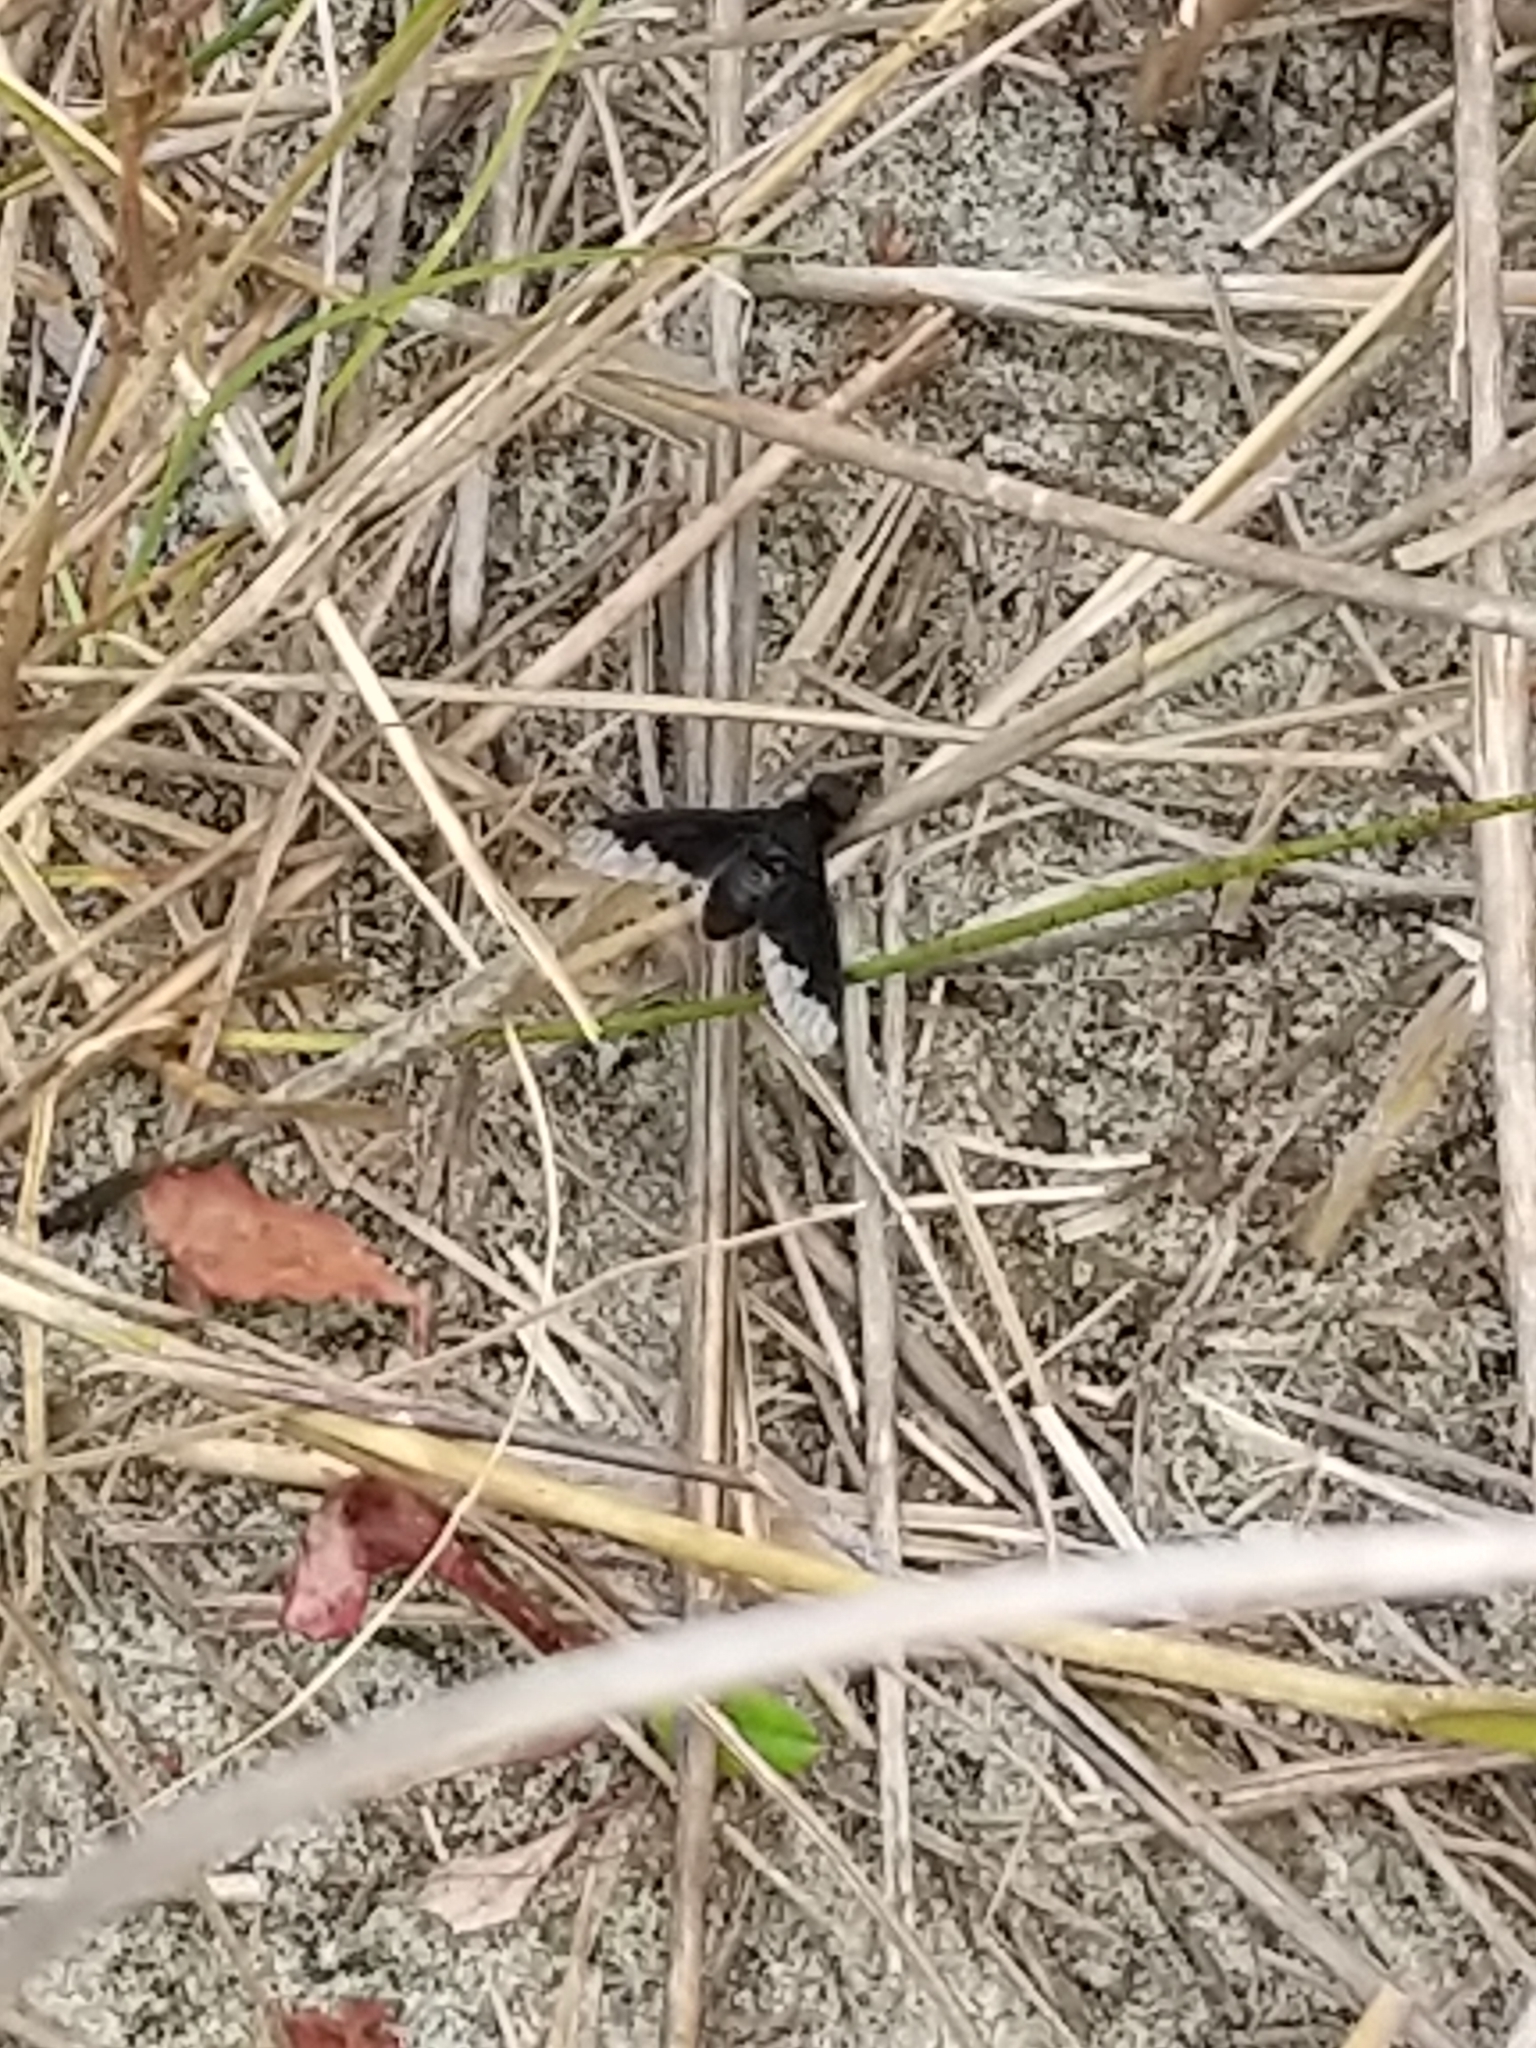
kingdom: Animalia
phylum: Arthropoda
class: Insecta
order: Diptera
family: Bombyliidae
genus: Anthrax
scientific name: Anthrax analis
